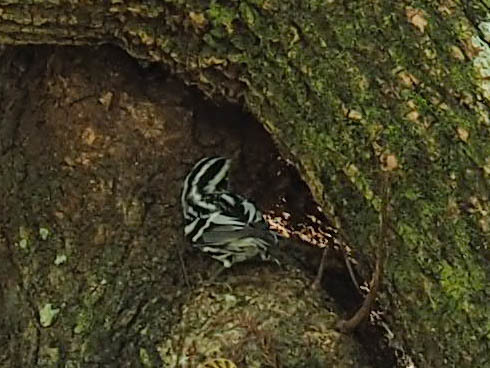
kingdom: Animalia
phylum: Chordata
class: Aves
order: Passeriformes
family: Parulidae
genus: Mniotilta
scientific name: Mniotilta varia
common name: Black-and-white warbler
